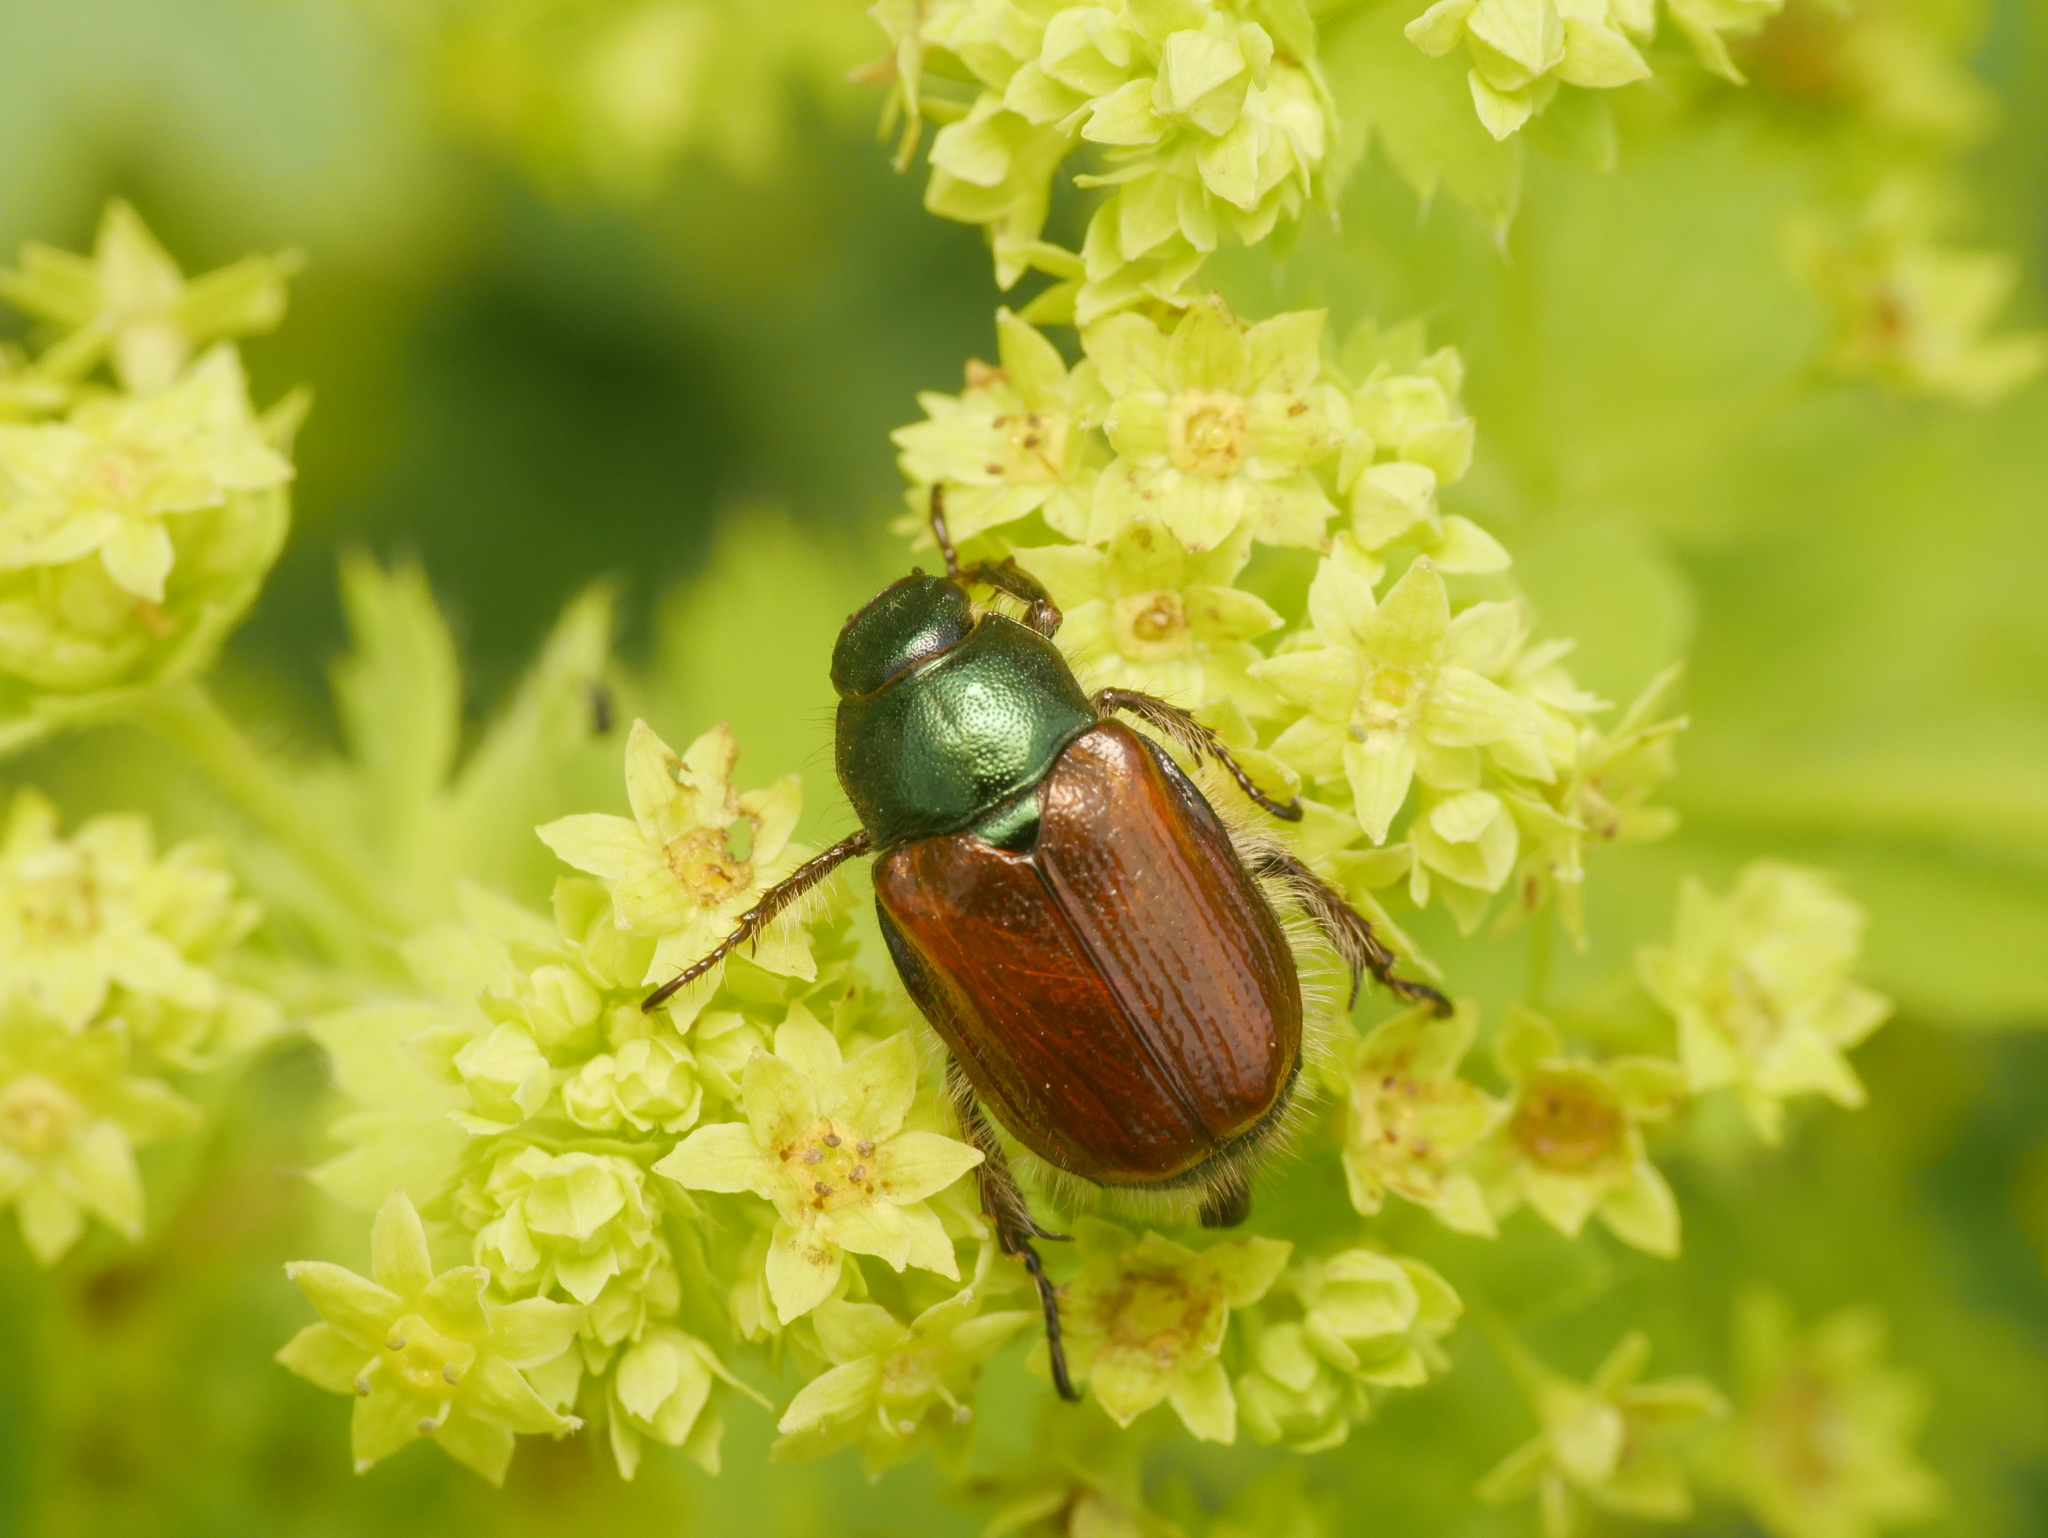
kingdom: Animalia
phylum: Arthropoda
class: Insecta
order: Coleoptera
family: Scarabaeidae
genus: Phyllopertha
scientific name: Phyllopertha horticola
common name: Garden chafer
